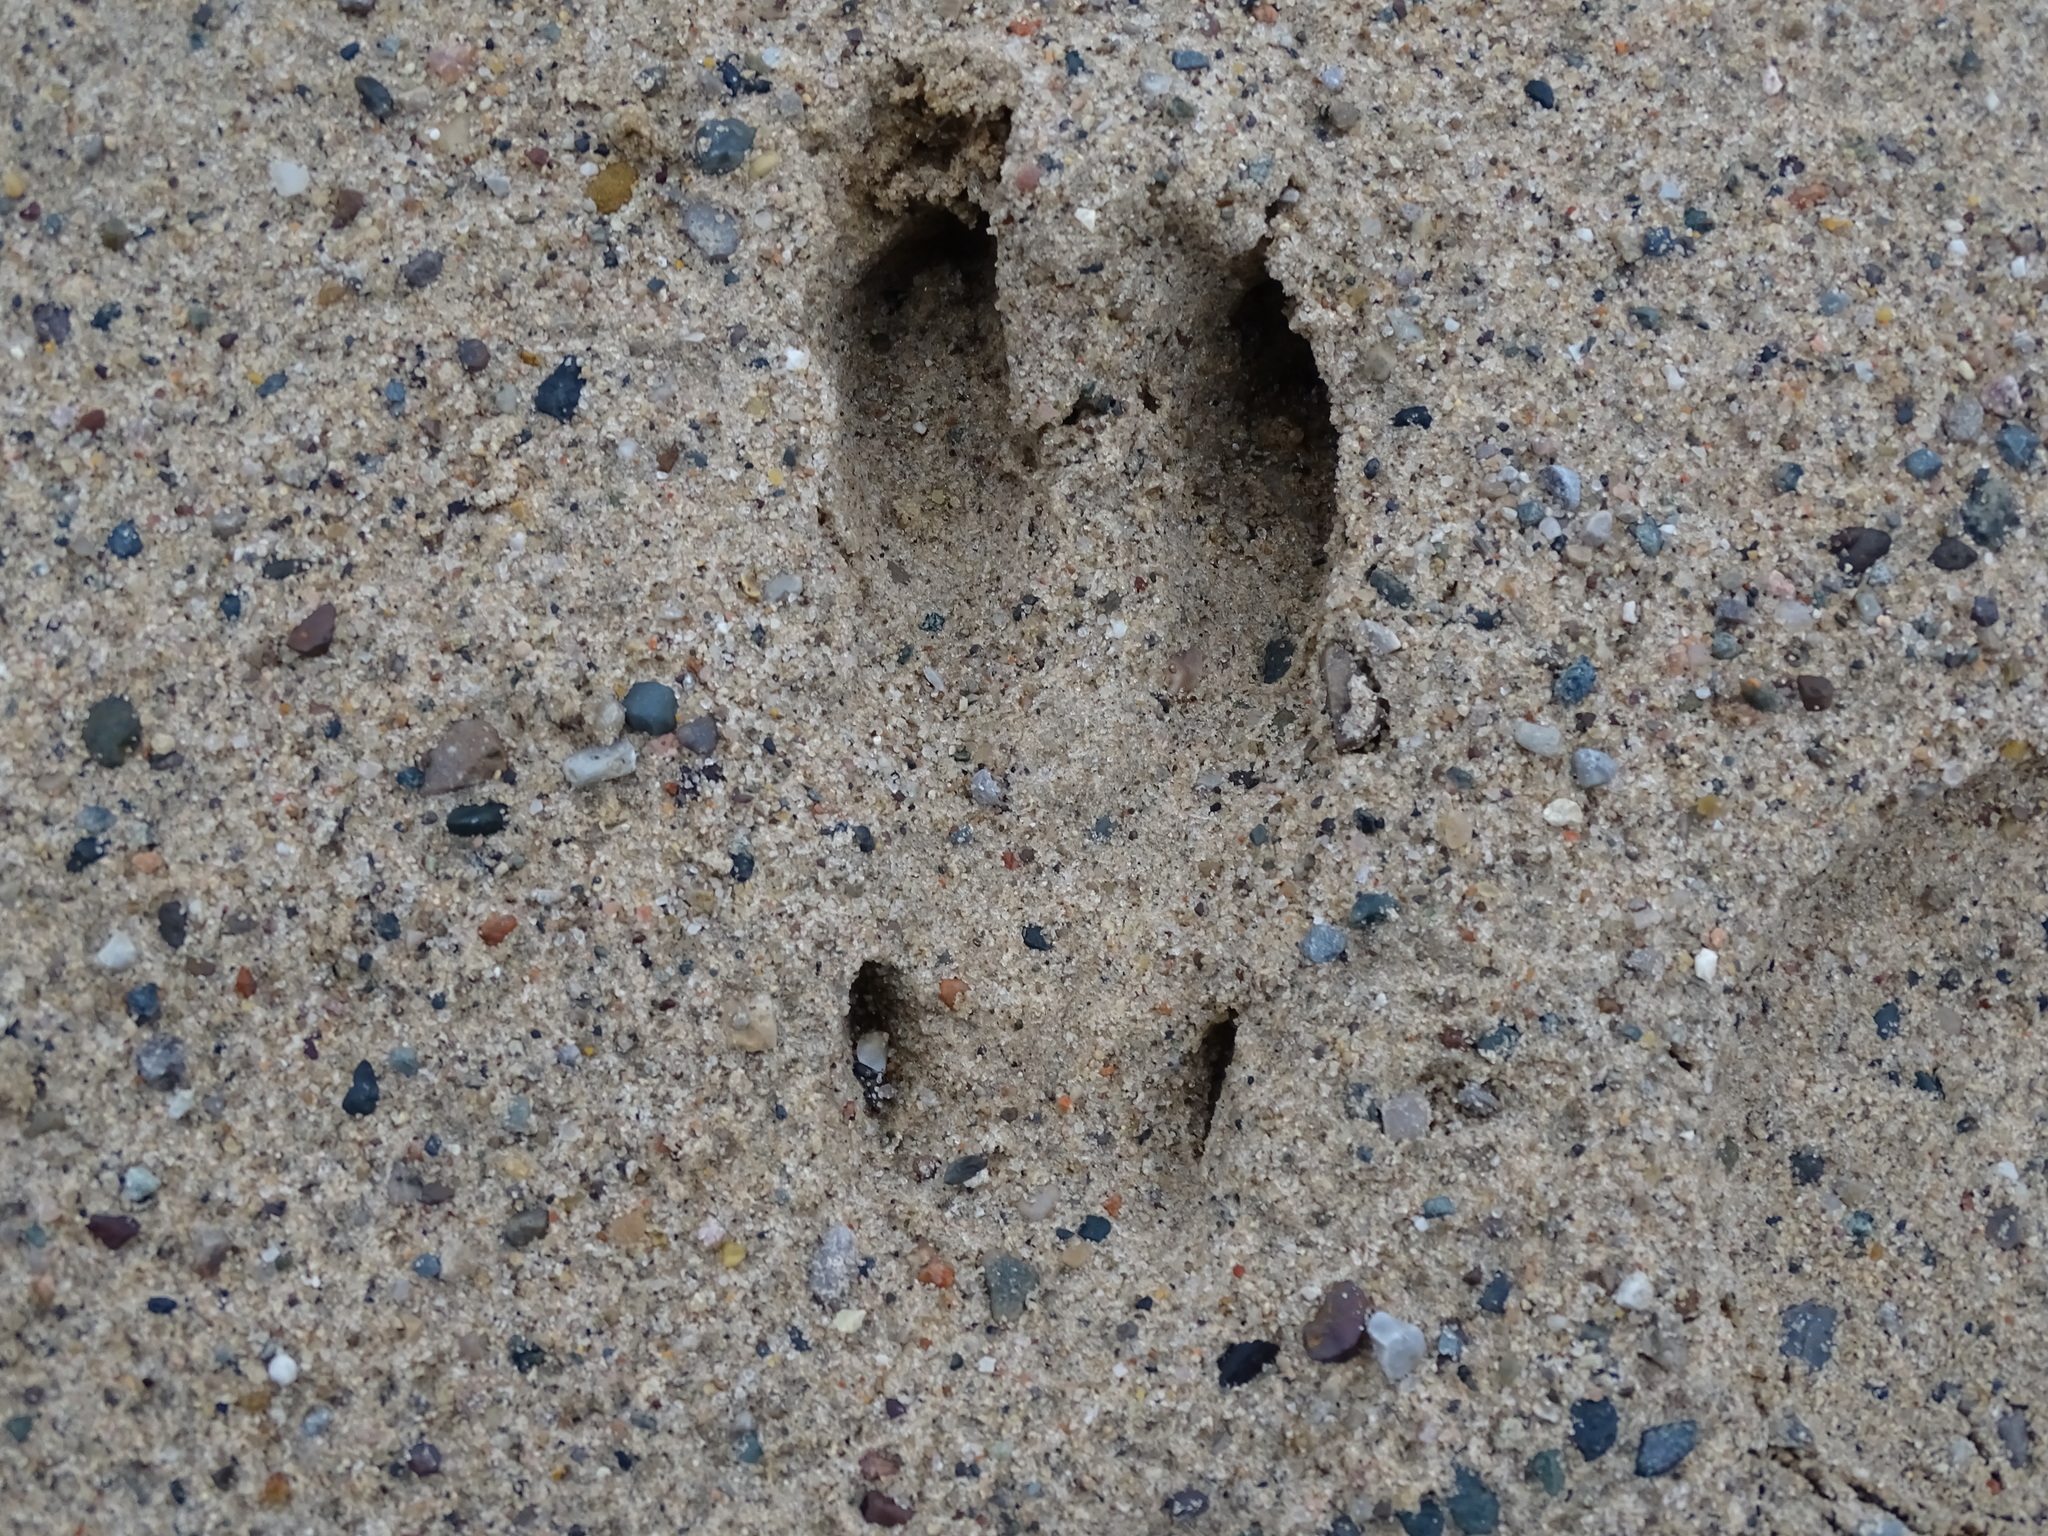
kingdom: Animalia
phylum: Chordata
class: Mammalia
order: Artiodactyla
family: Cervidae
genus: Odocoileus
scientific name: Odocoileus virginianus
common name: White-tailed deer
